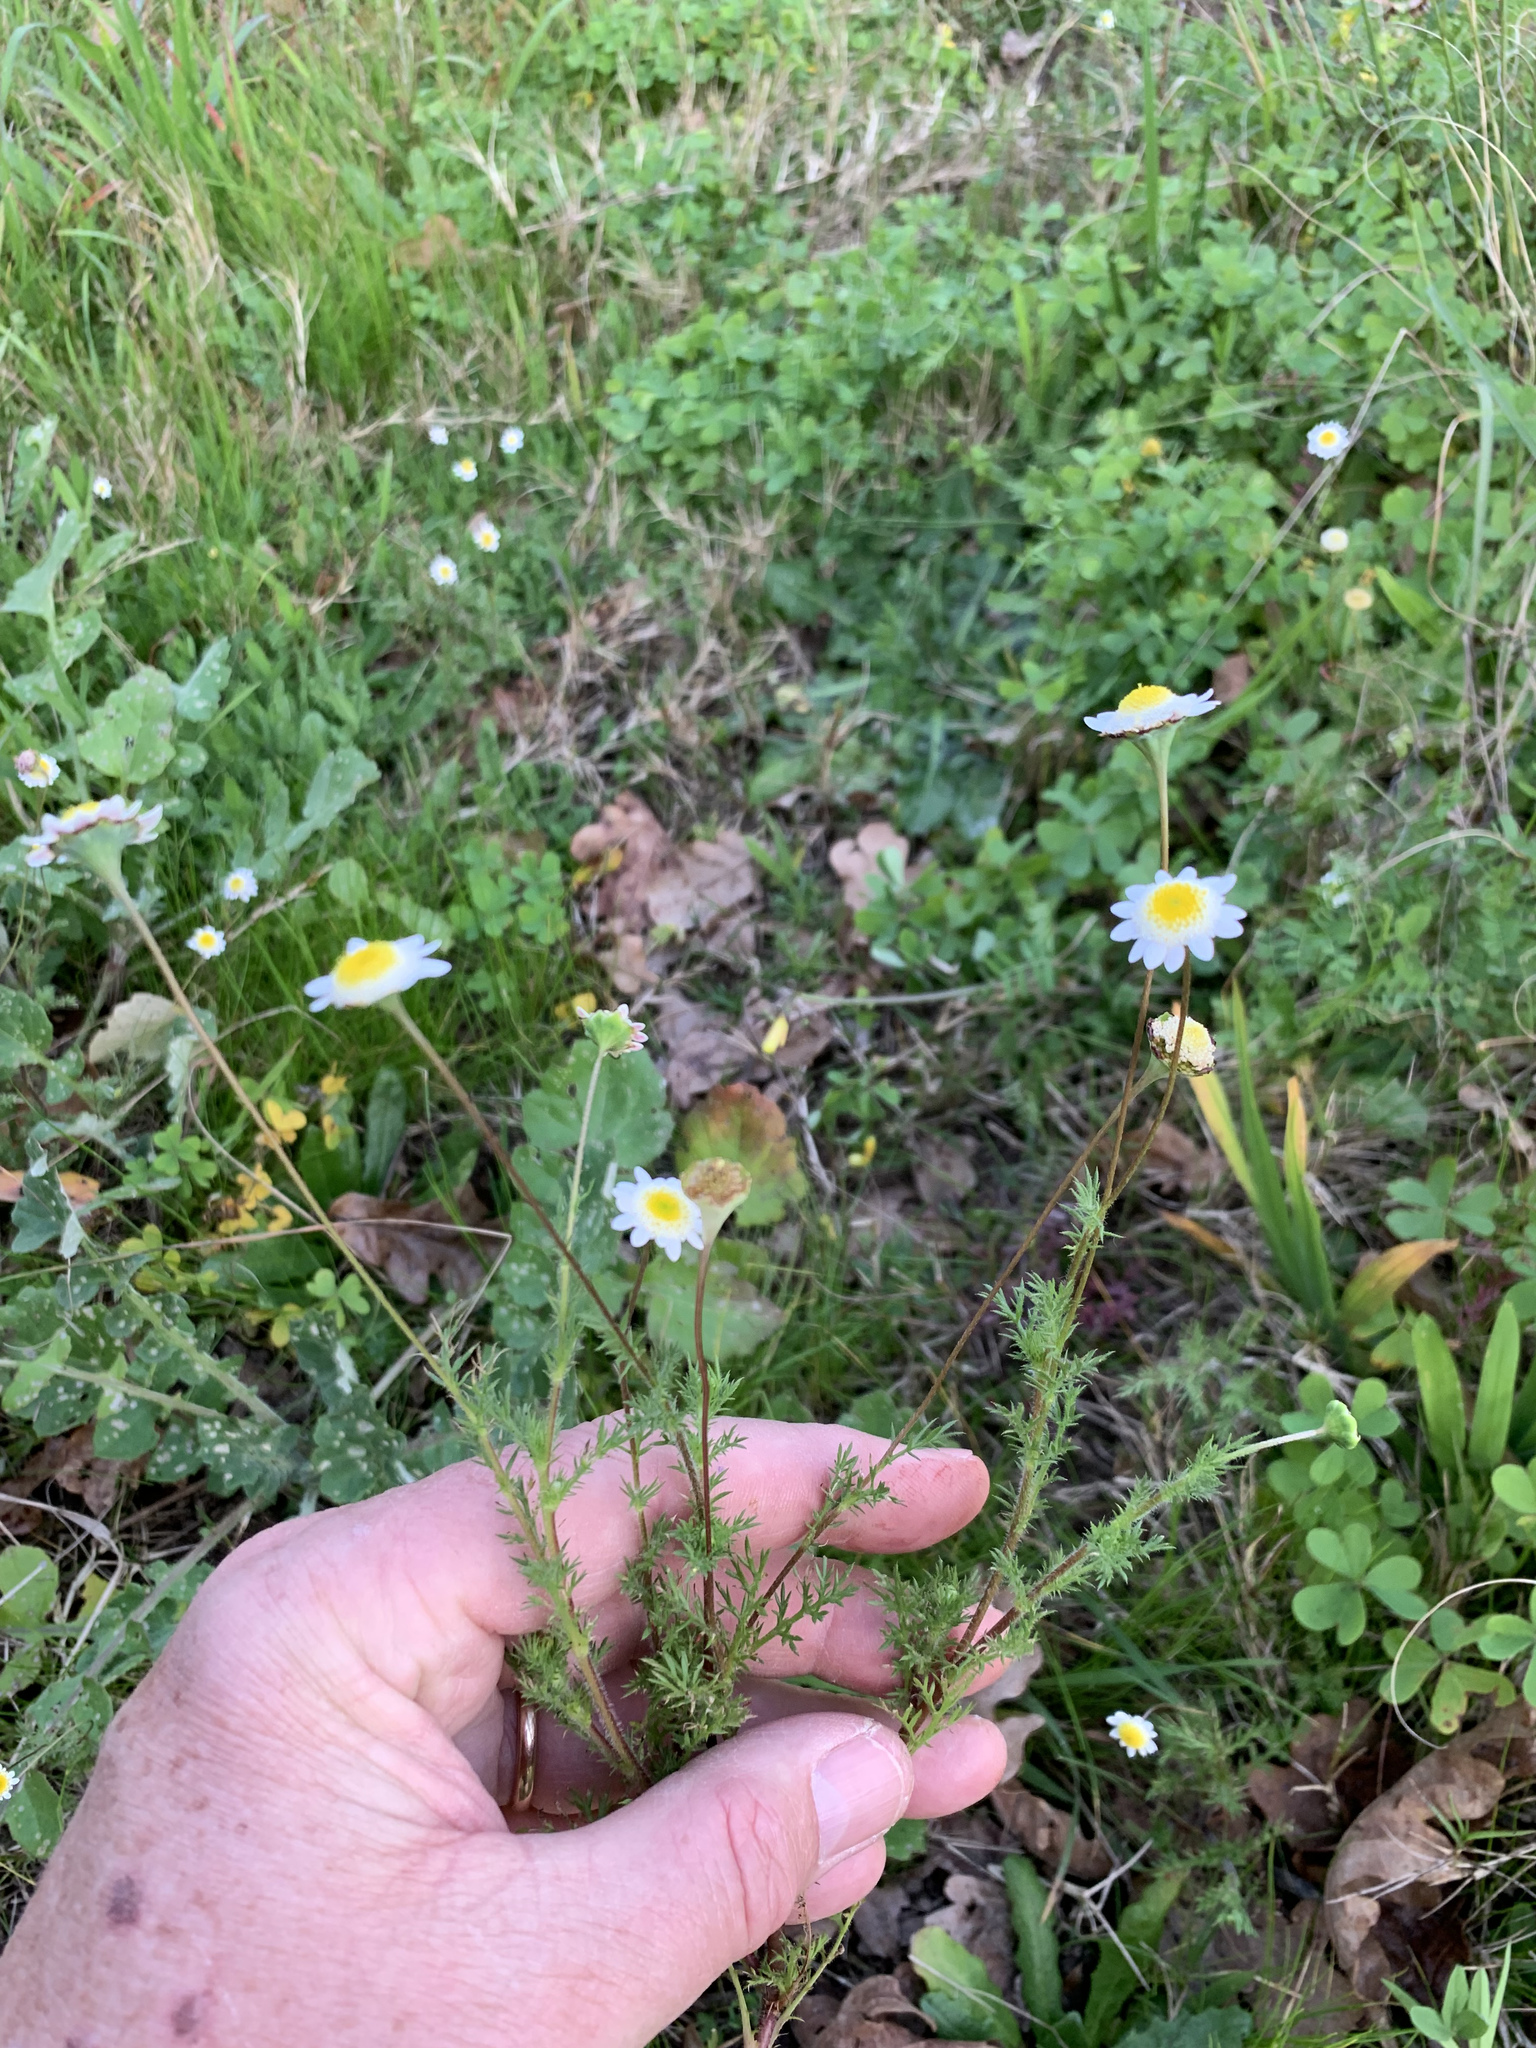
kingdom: Plantae
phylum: Tracheophyta
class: Magnoliopsida
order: Asterales
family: Asteraceae
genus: Cotula
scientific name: Cotula turbinata
